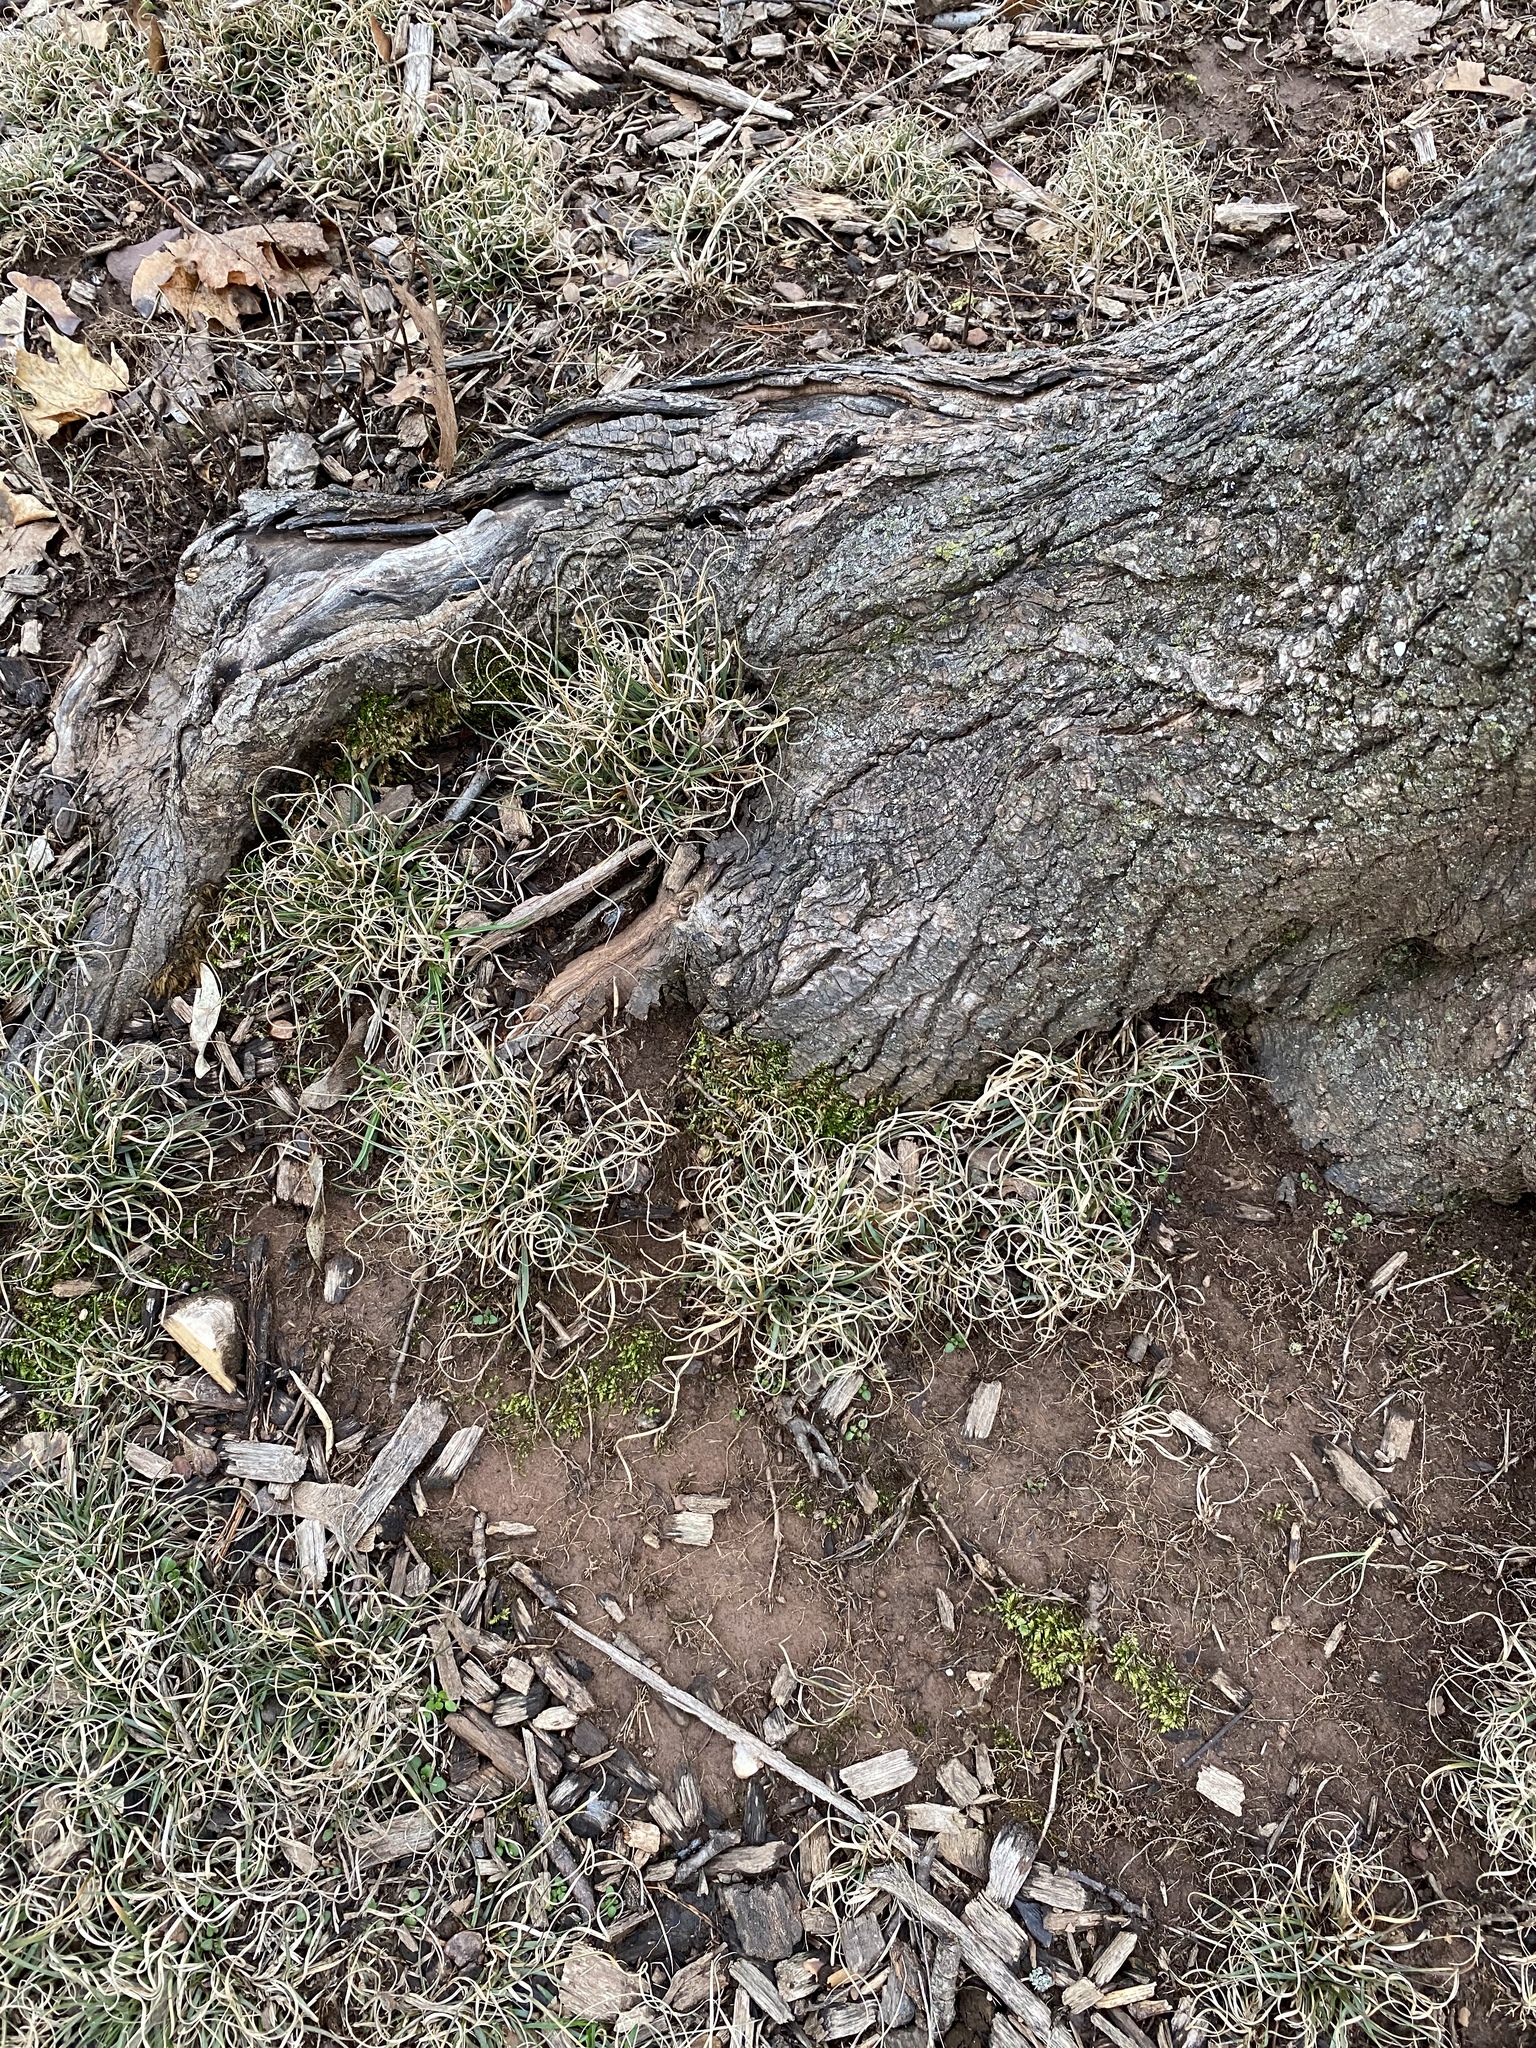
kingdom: Plantae
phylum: Tracheophyta
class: Liliopsida
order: Poales
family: Poaceae
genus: Danthonia
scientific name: Danthonia spicata
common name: Common wild oatgrass
